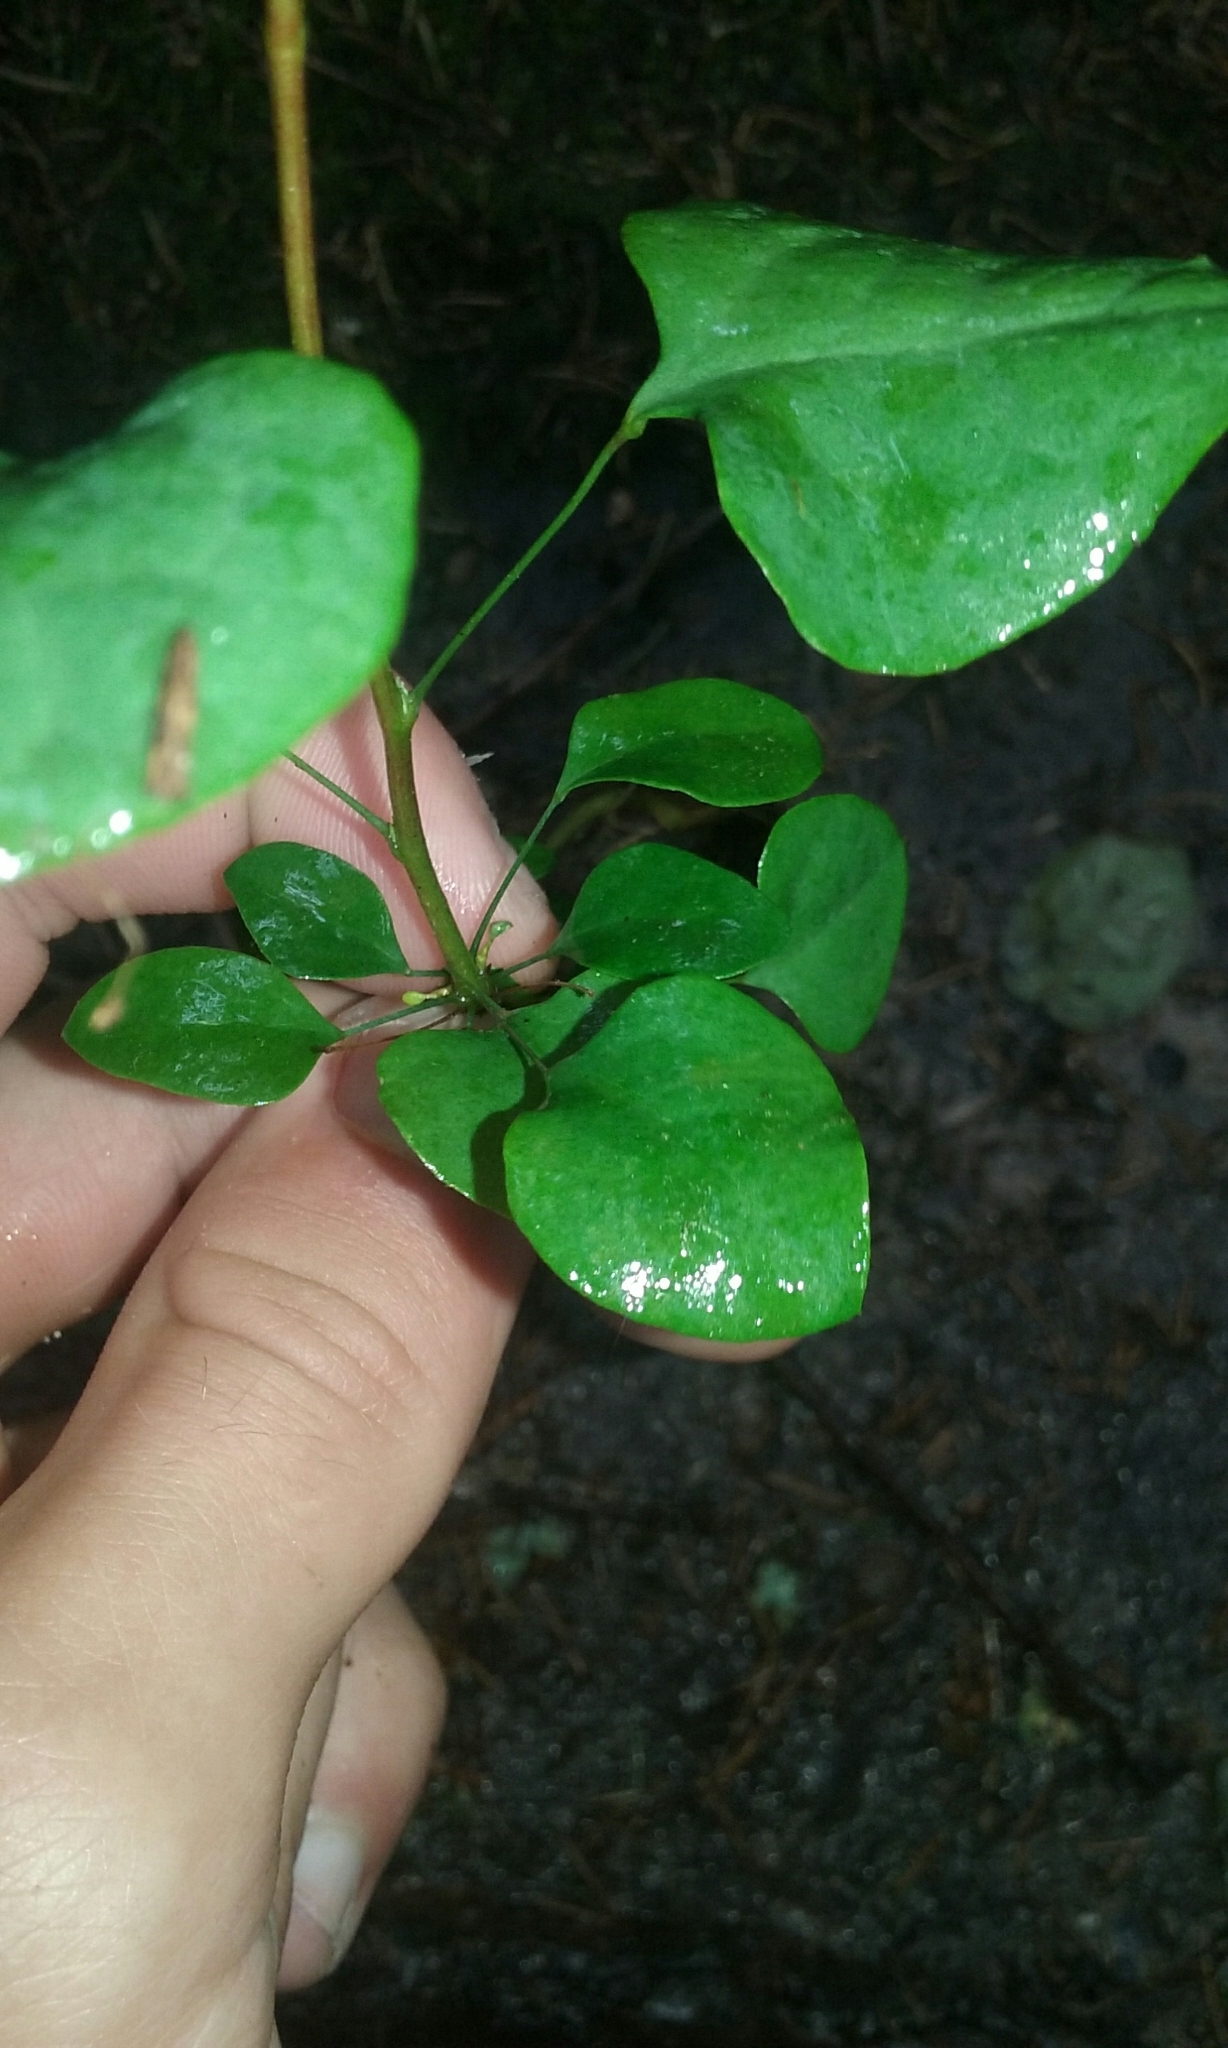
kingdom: Plantae
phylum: Tracheophyta
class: Magnoliopsida
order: Ranunculales
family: Berberidaceae
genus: Berberis
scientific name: Berberis thunbergii
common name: Japanese barberry
